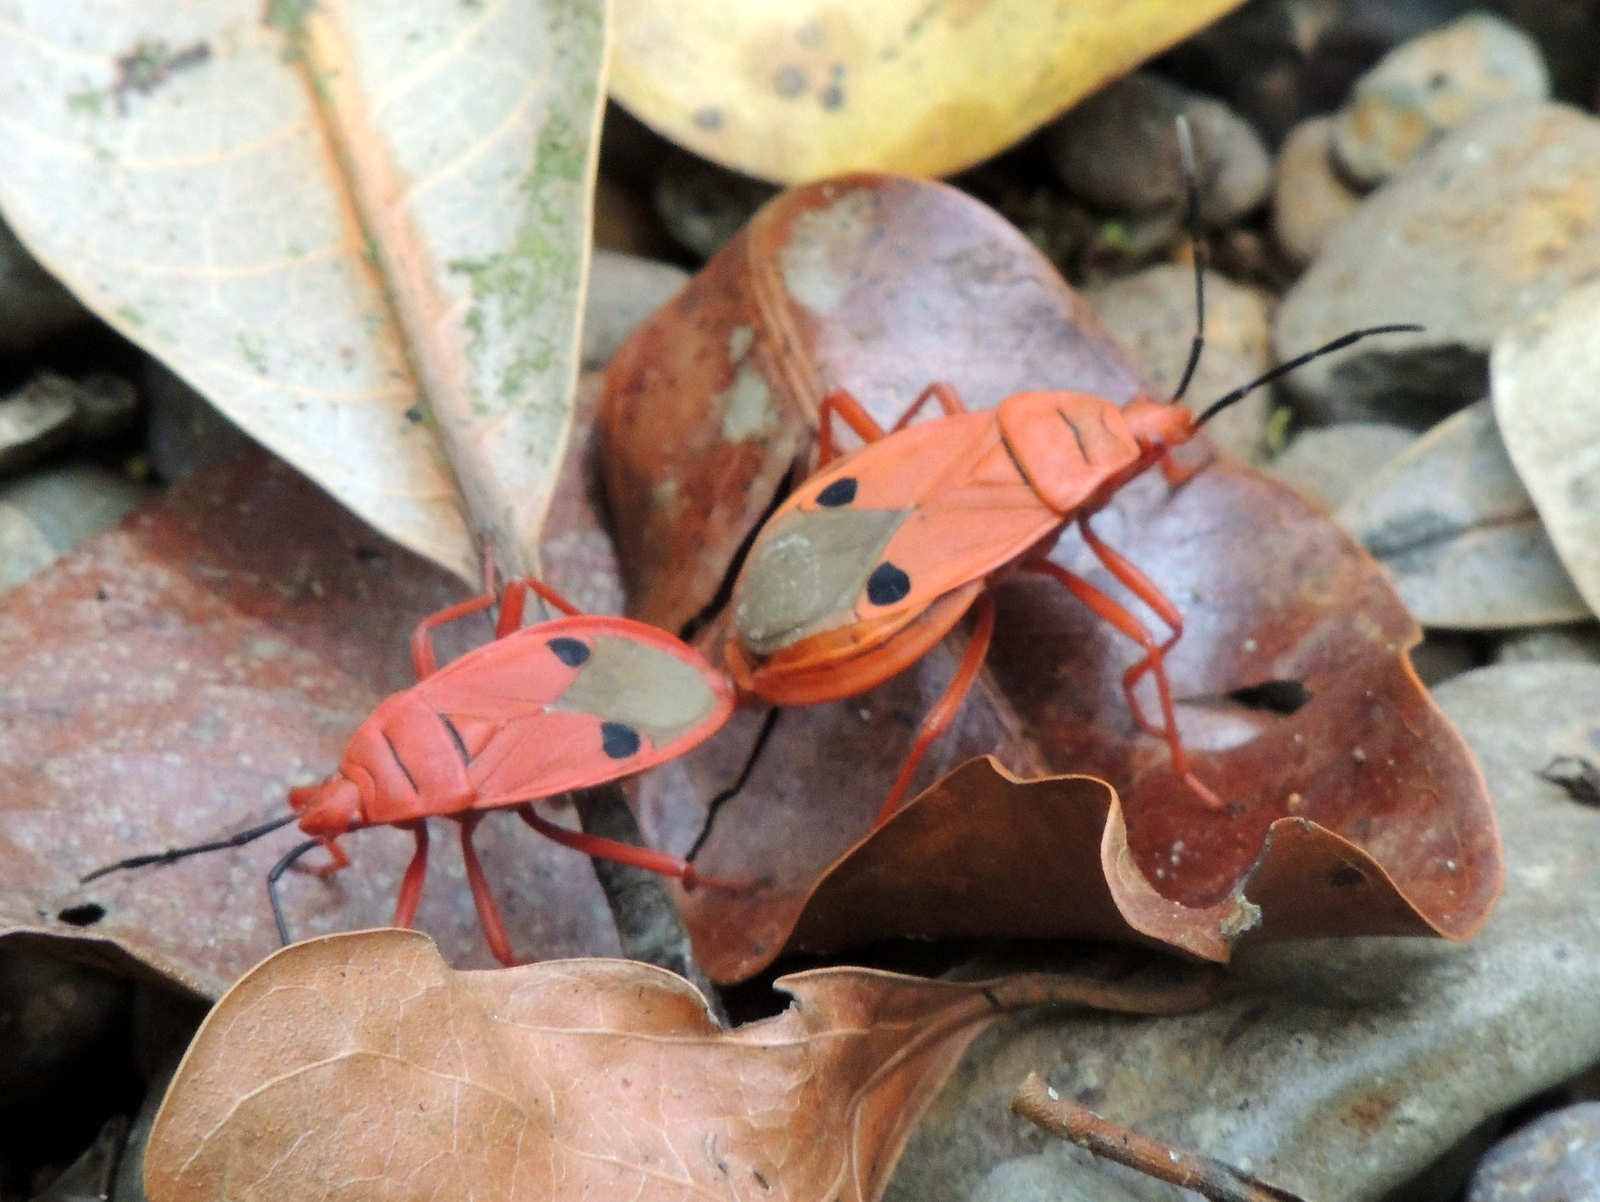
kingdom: Animalia
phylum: Arthropoda
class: Insecta
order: Hemiptera
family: Pyrrhocoridae
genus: Probergrothius
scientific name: Probergrothius nigricornis
